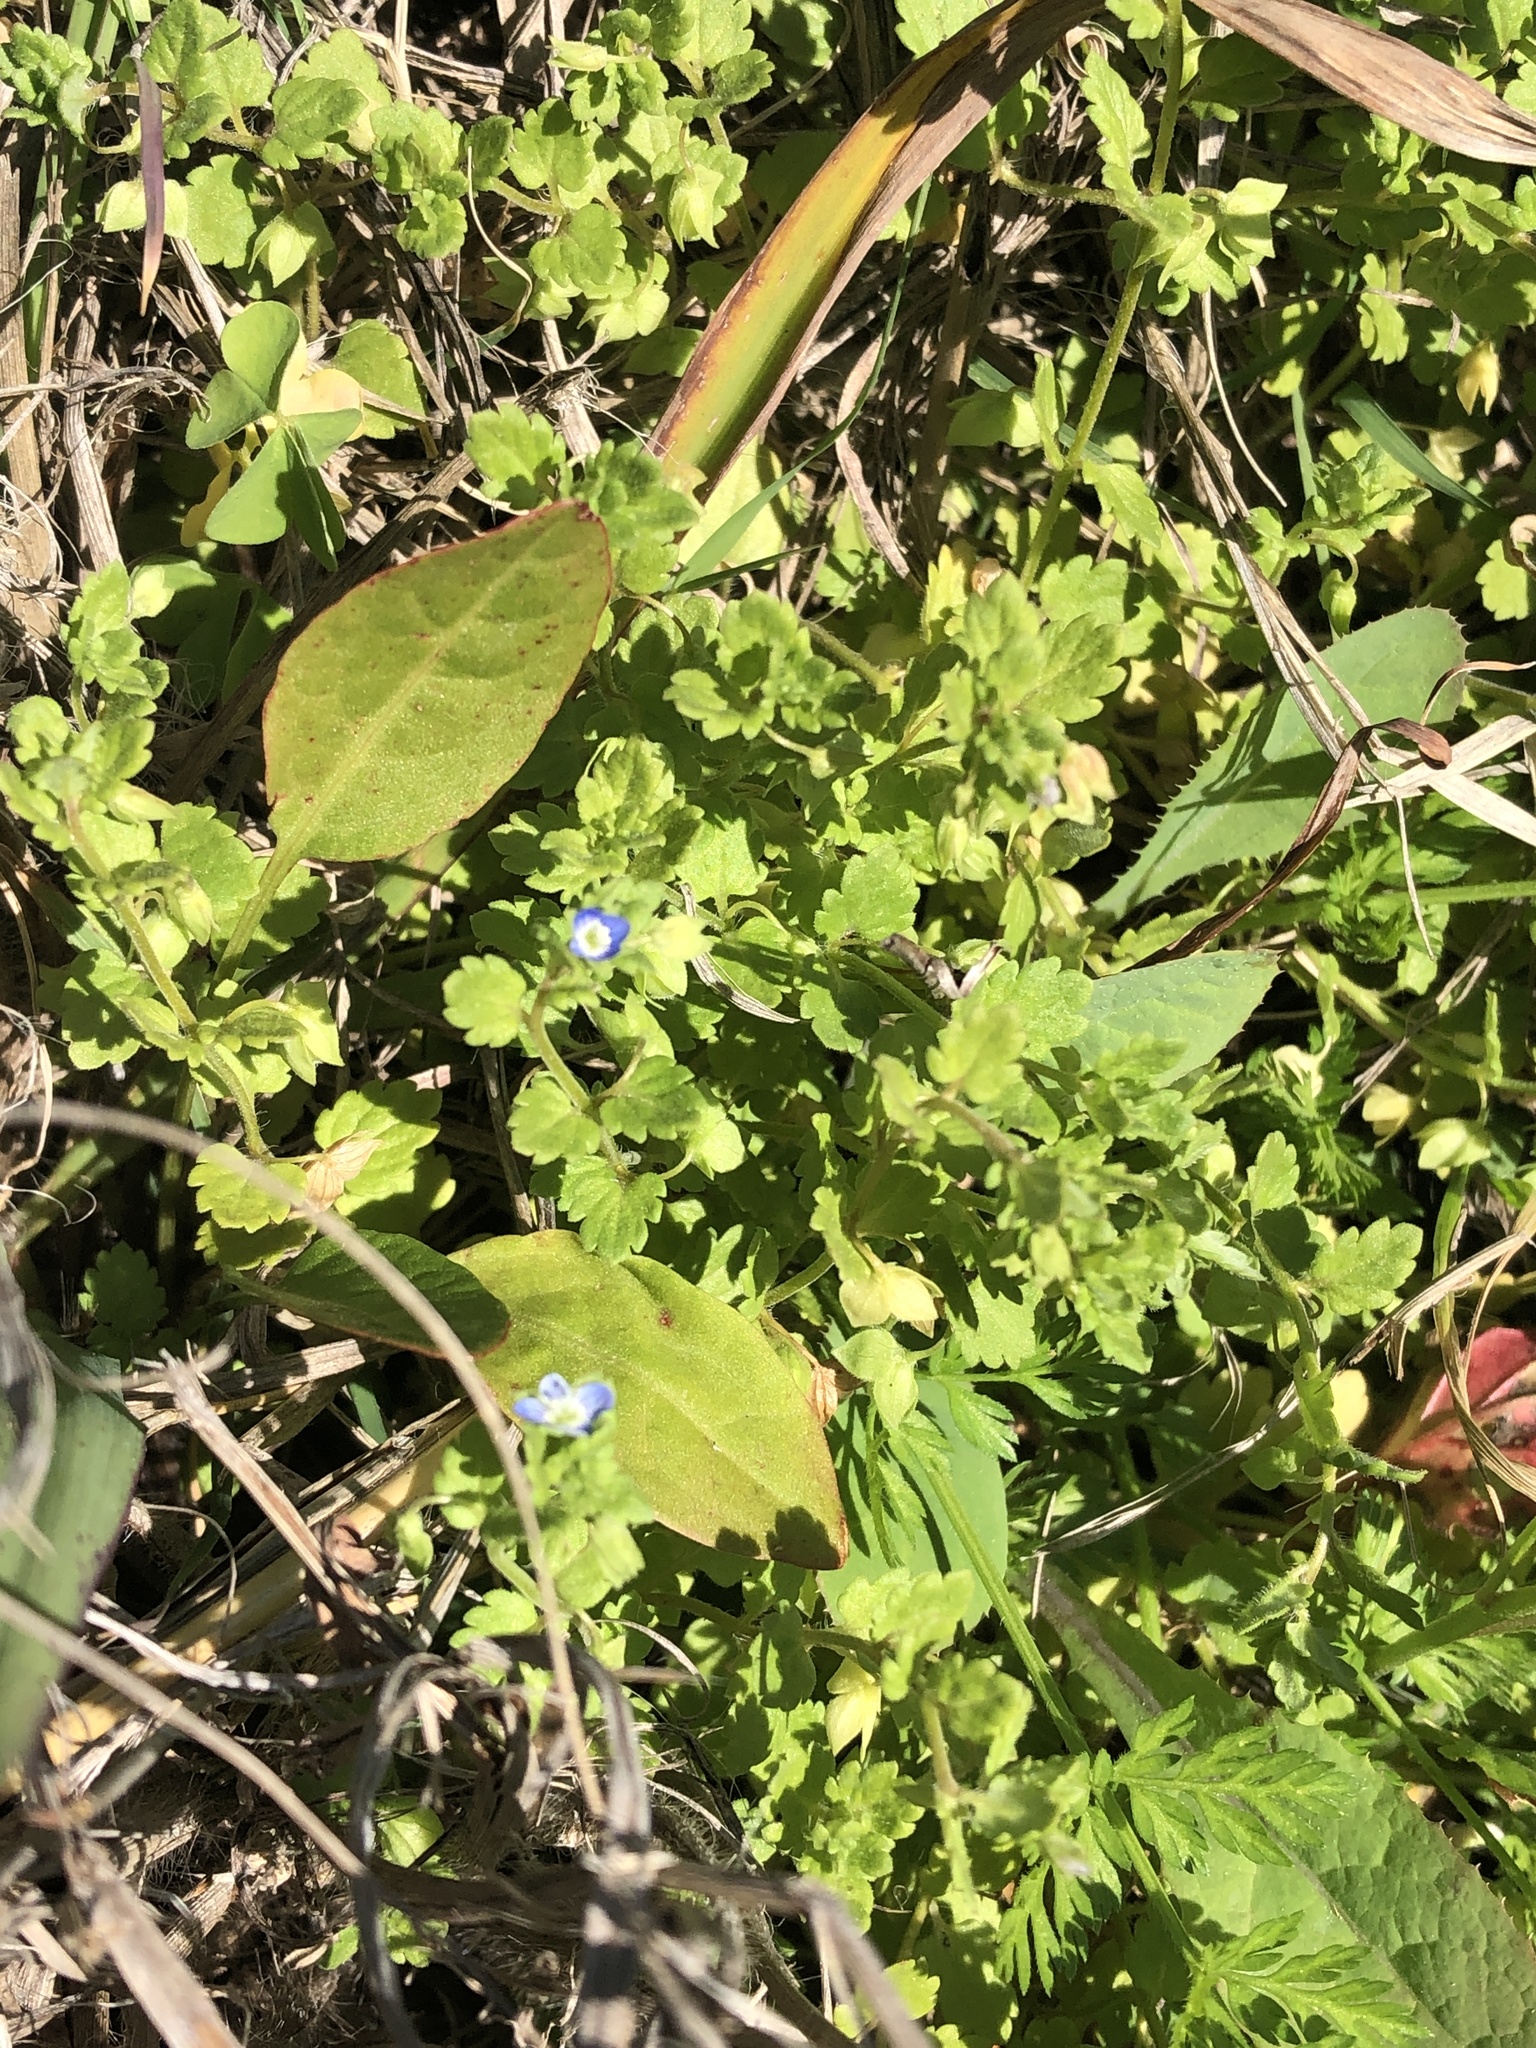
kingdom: Plantae
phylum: Tracheophyta
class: Magnoliopsida
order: Lamiales
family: Plantaginaceae
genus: Veronica
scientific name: Veronica polita
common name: Grey field-speedwell
